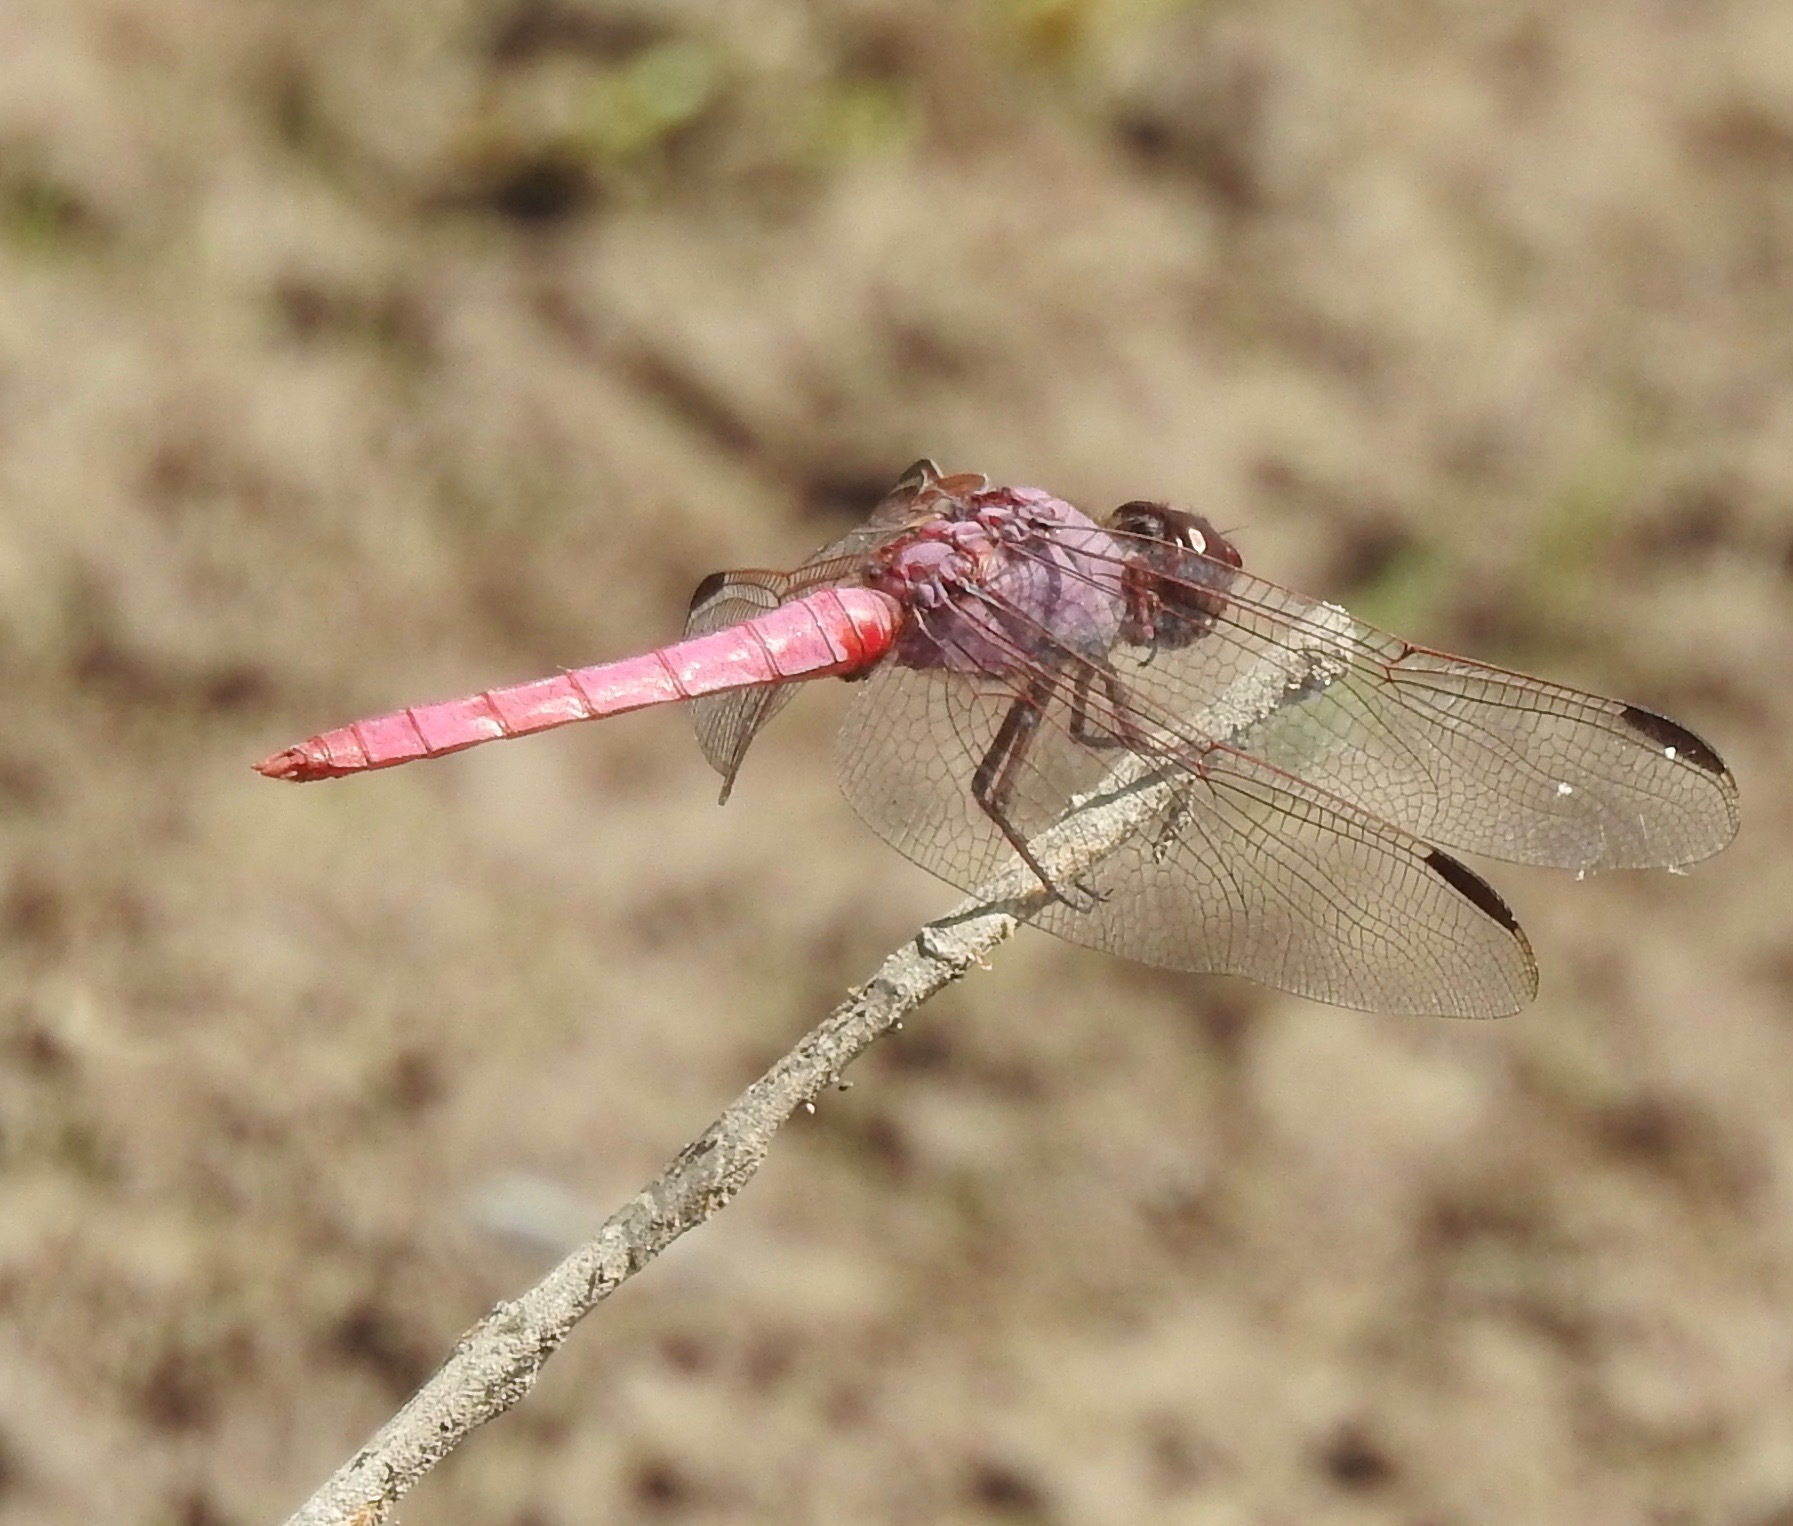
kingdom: Animalia
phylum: Arthropoda
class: Insecta
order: Odonata
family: Libellulidae
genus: Orthemis
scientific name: Orthemis ferruginea
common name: Roseate skimmer
